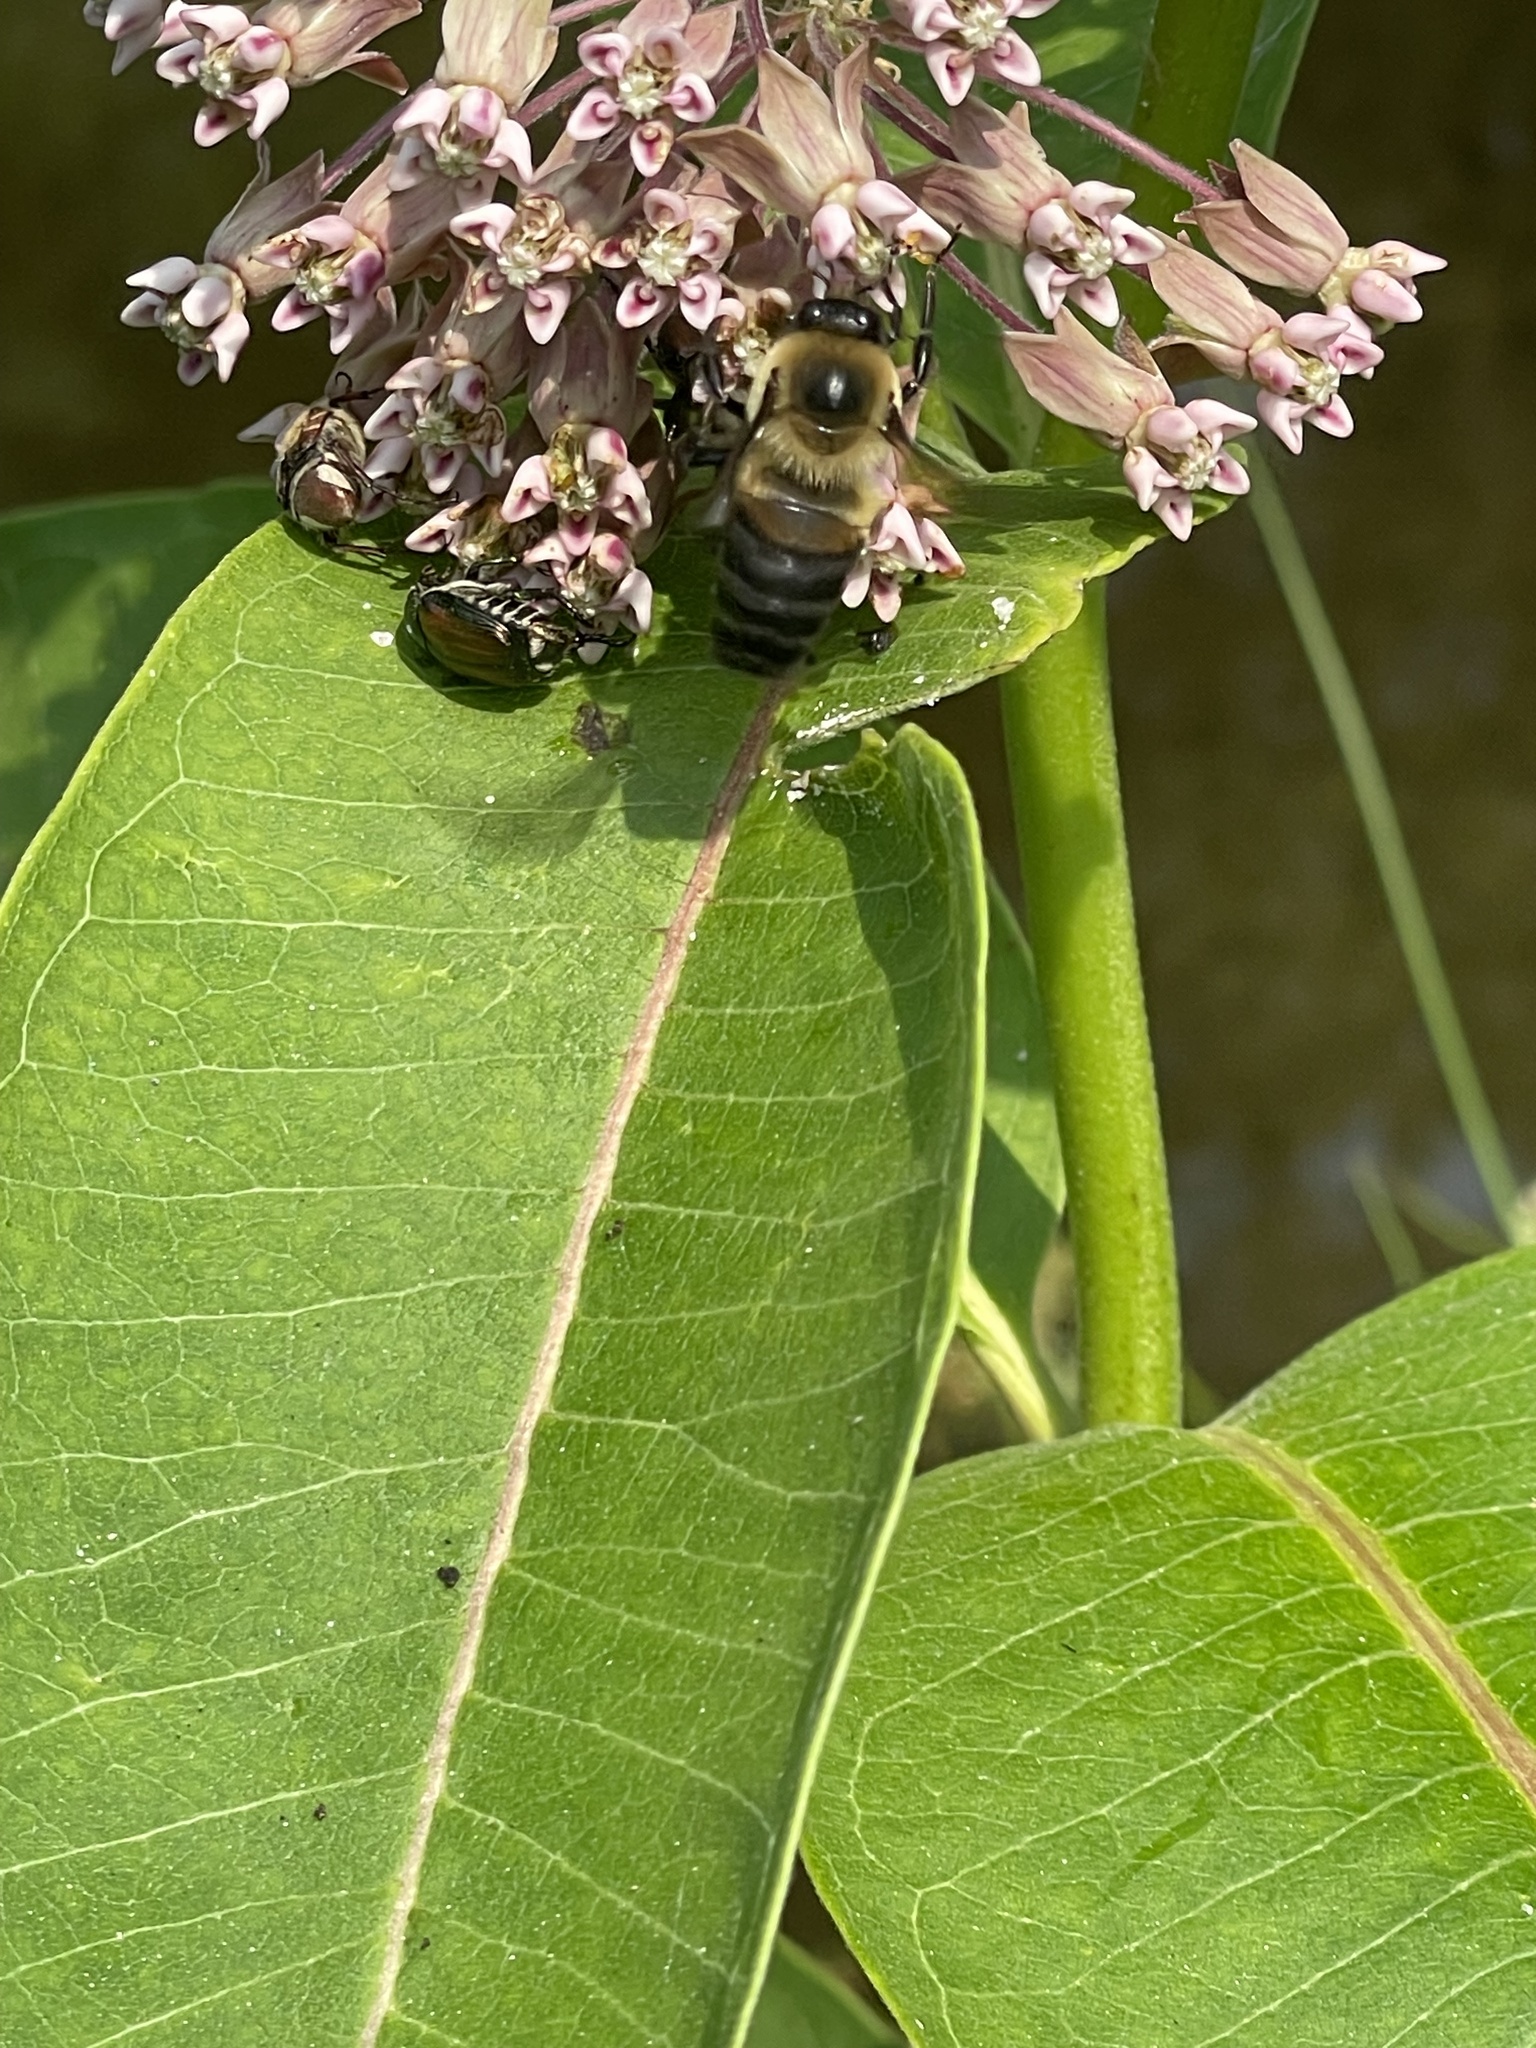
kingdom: Animalia
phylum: Arthropoda
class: Insecta
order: Hymenoptera
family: Apidae
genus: Bombus
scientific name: Bombus griseocollis
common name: Brown-belted bumble bee
